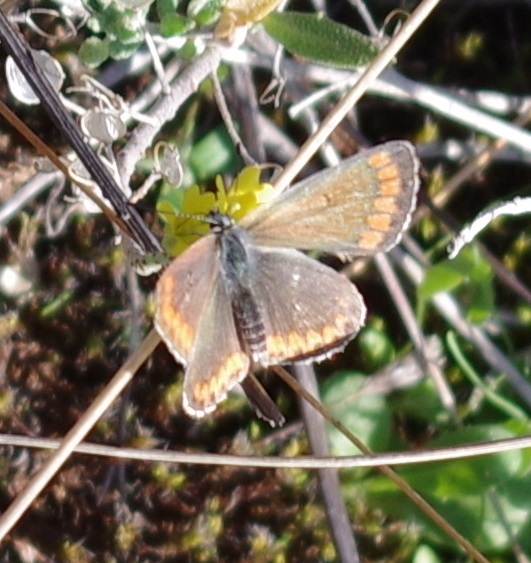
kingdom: Animalia
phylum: Arthropoda
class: Insecta
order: Lepidoptera
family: Lycaenidae
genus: Aricia
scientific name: Aricia agestis
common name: Brown argus
